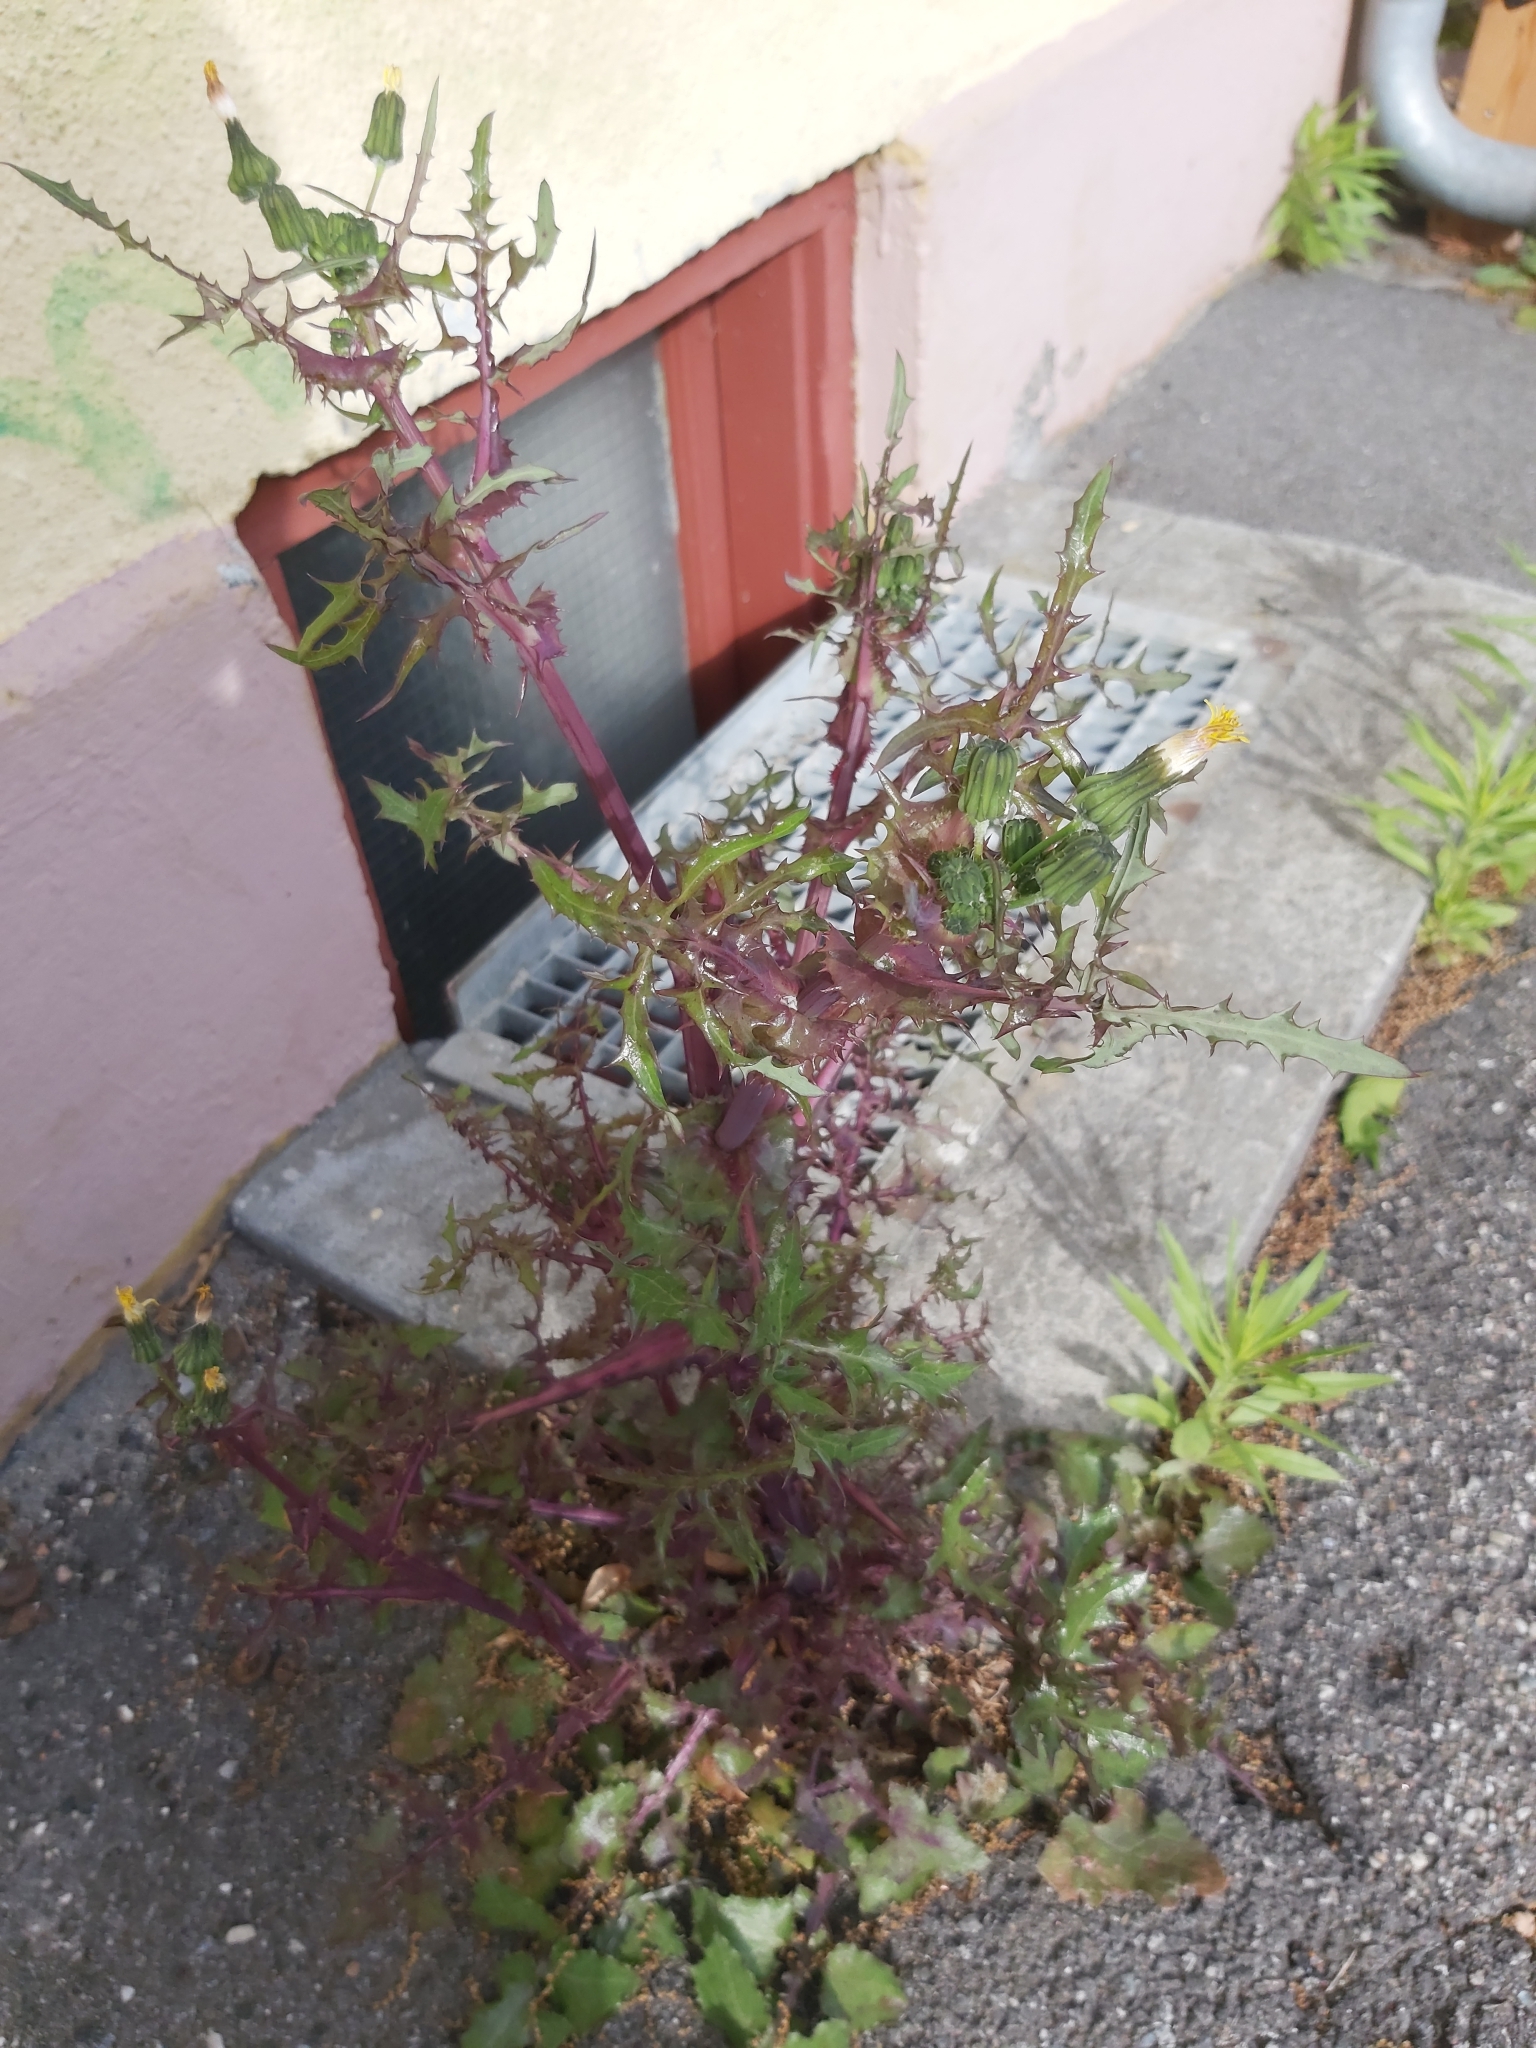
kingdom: Plantae
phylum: Tracheophyta
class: Magnoliopsida
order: Asterales
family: Asteraceae
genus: Sonchus
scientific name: Sonchus asper
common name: Prickly sow-thistle
